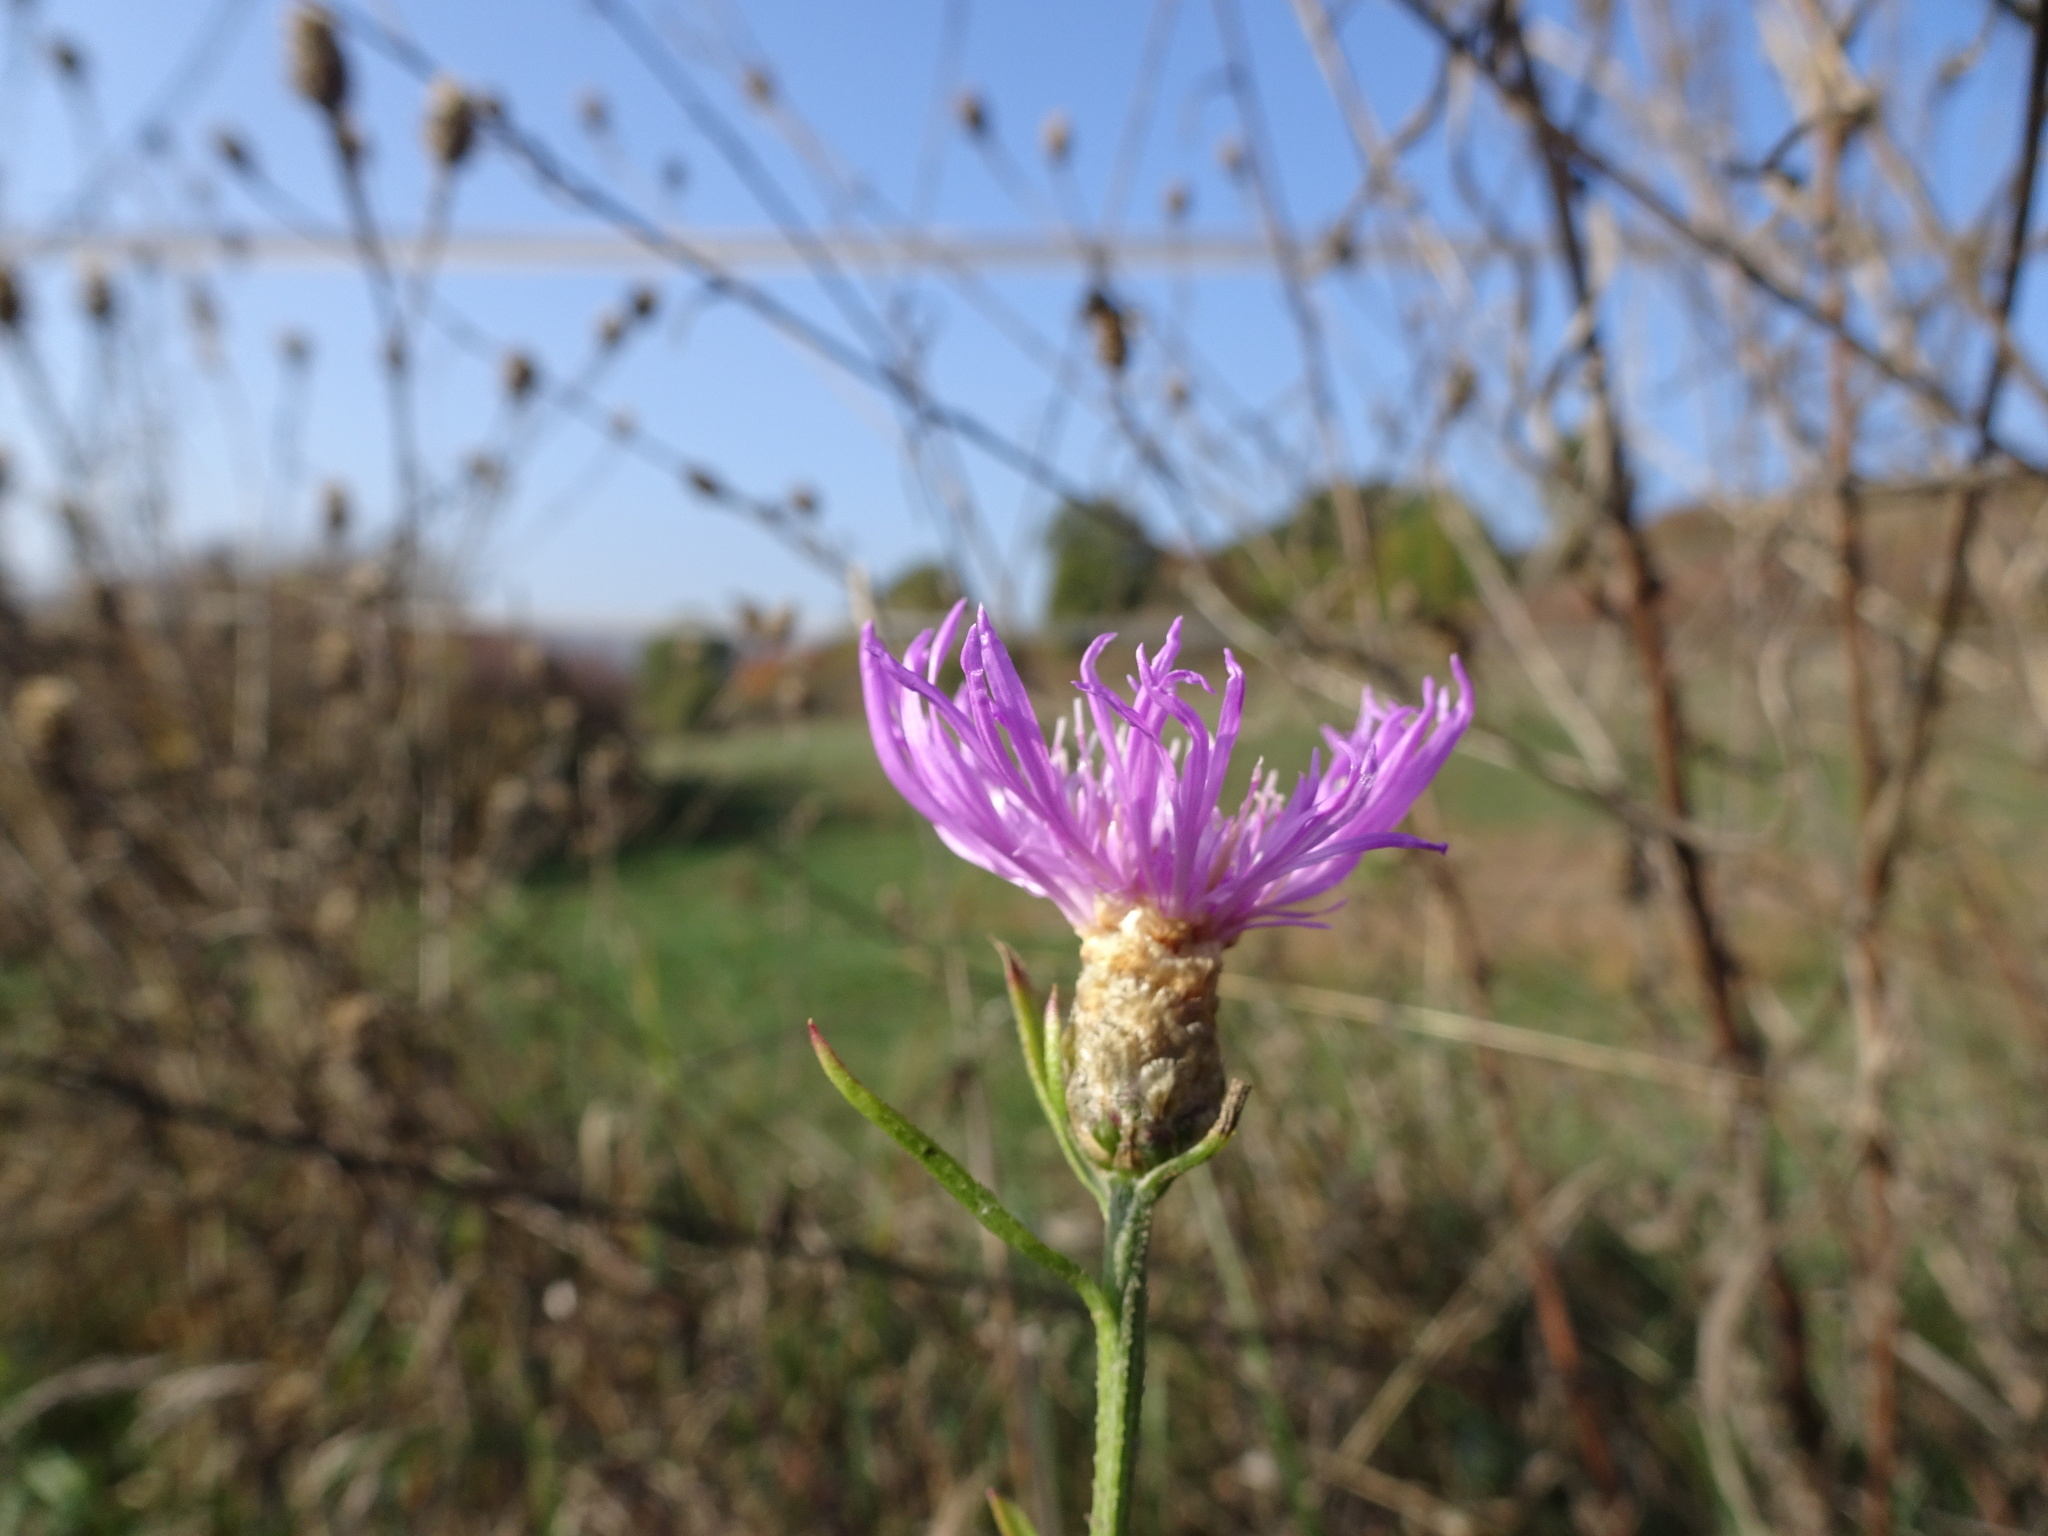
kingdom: Plantae
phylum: Tracheophyta
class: Magnoliopsida
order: Asterales
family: Asteraceae
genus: Centaurea
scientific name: Centaurea jacea
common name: Brown knapweed
